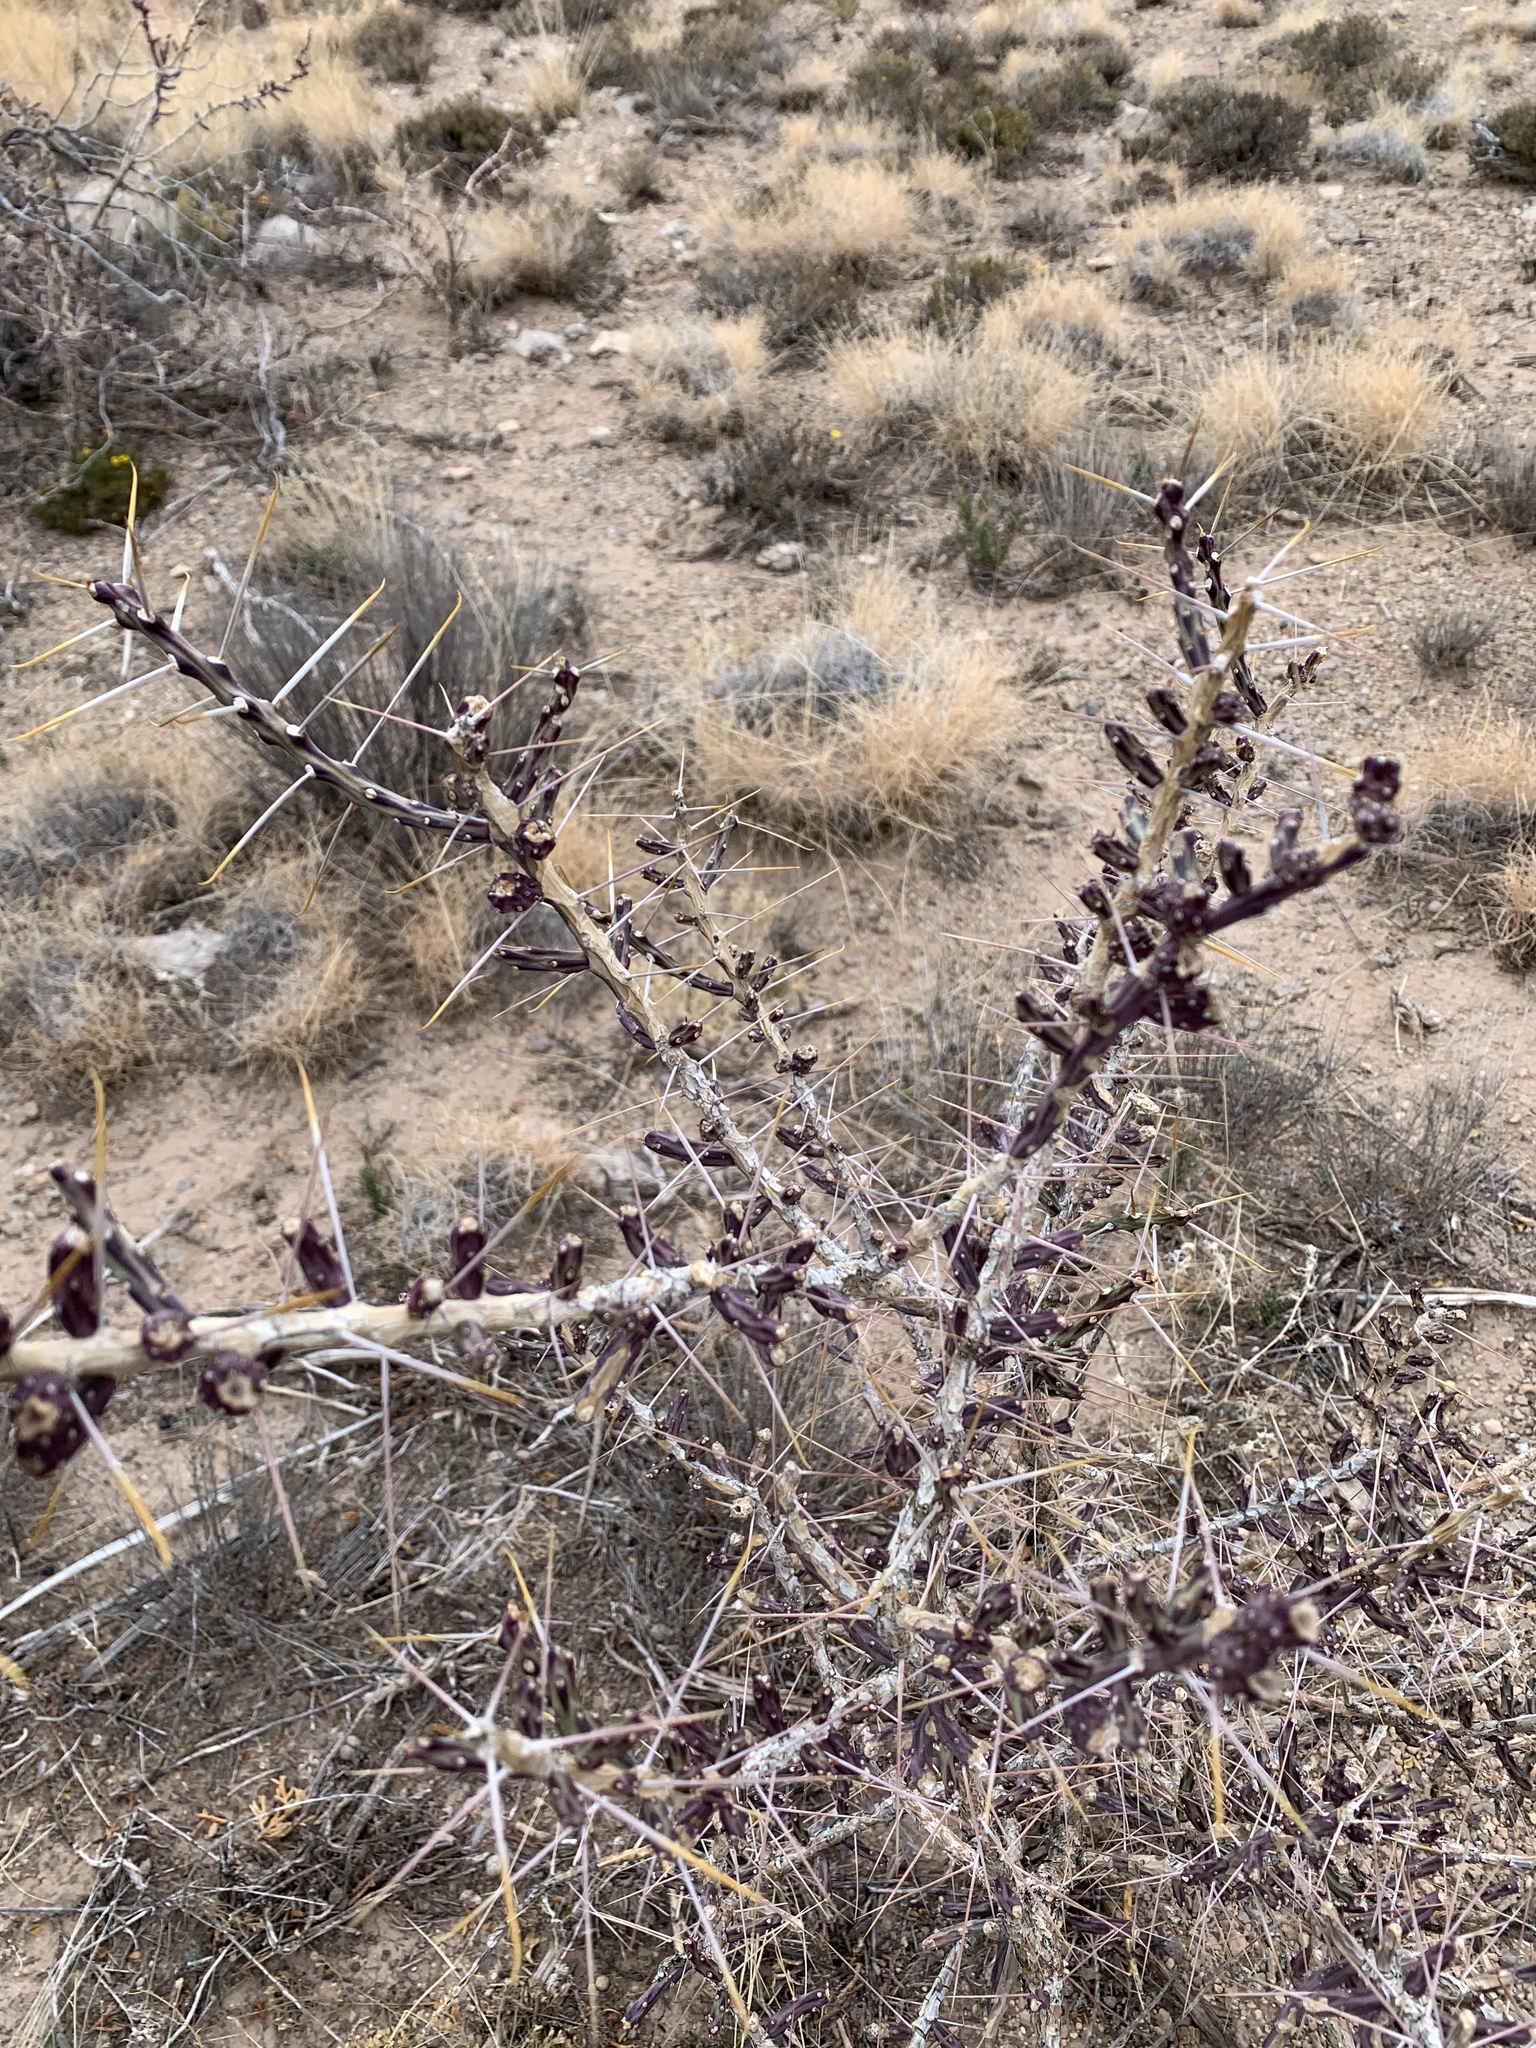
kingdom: Plantae
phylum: Tracheophyta
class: Magnoliopsida
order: Caryophyllales
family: Cactaceae
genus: Cylindropuntia
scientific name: Cylindropuntia leptocaulis
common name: Christmas cactus
